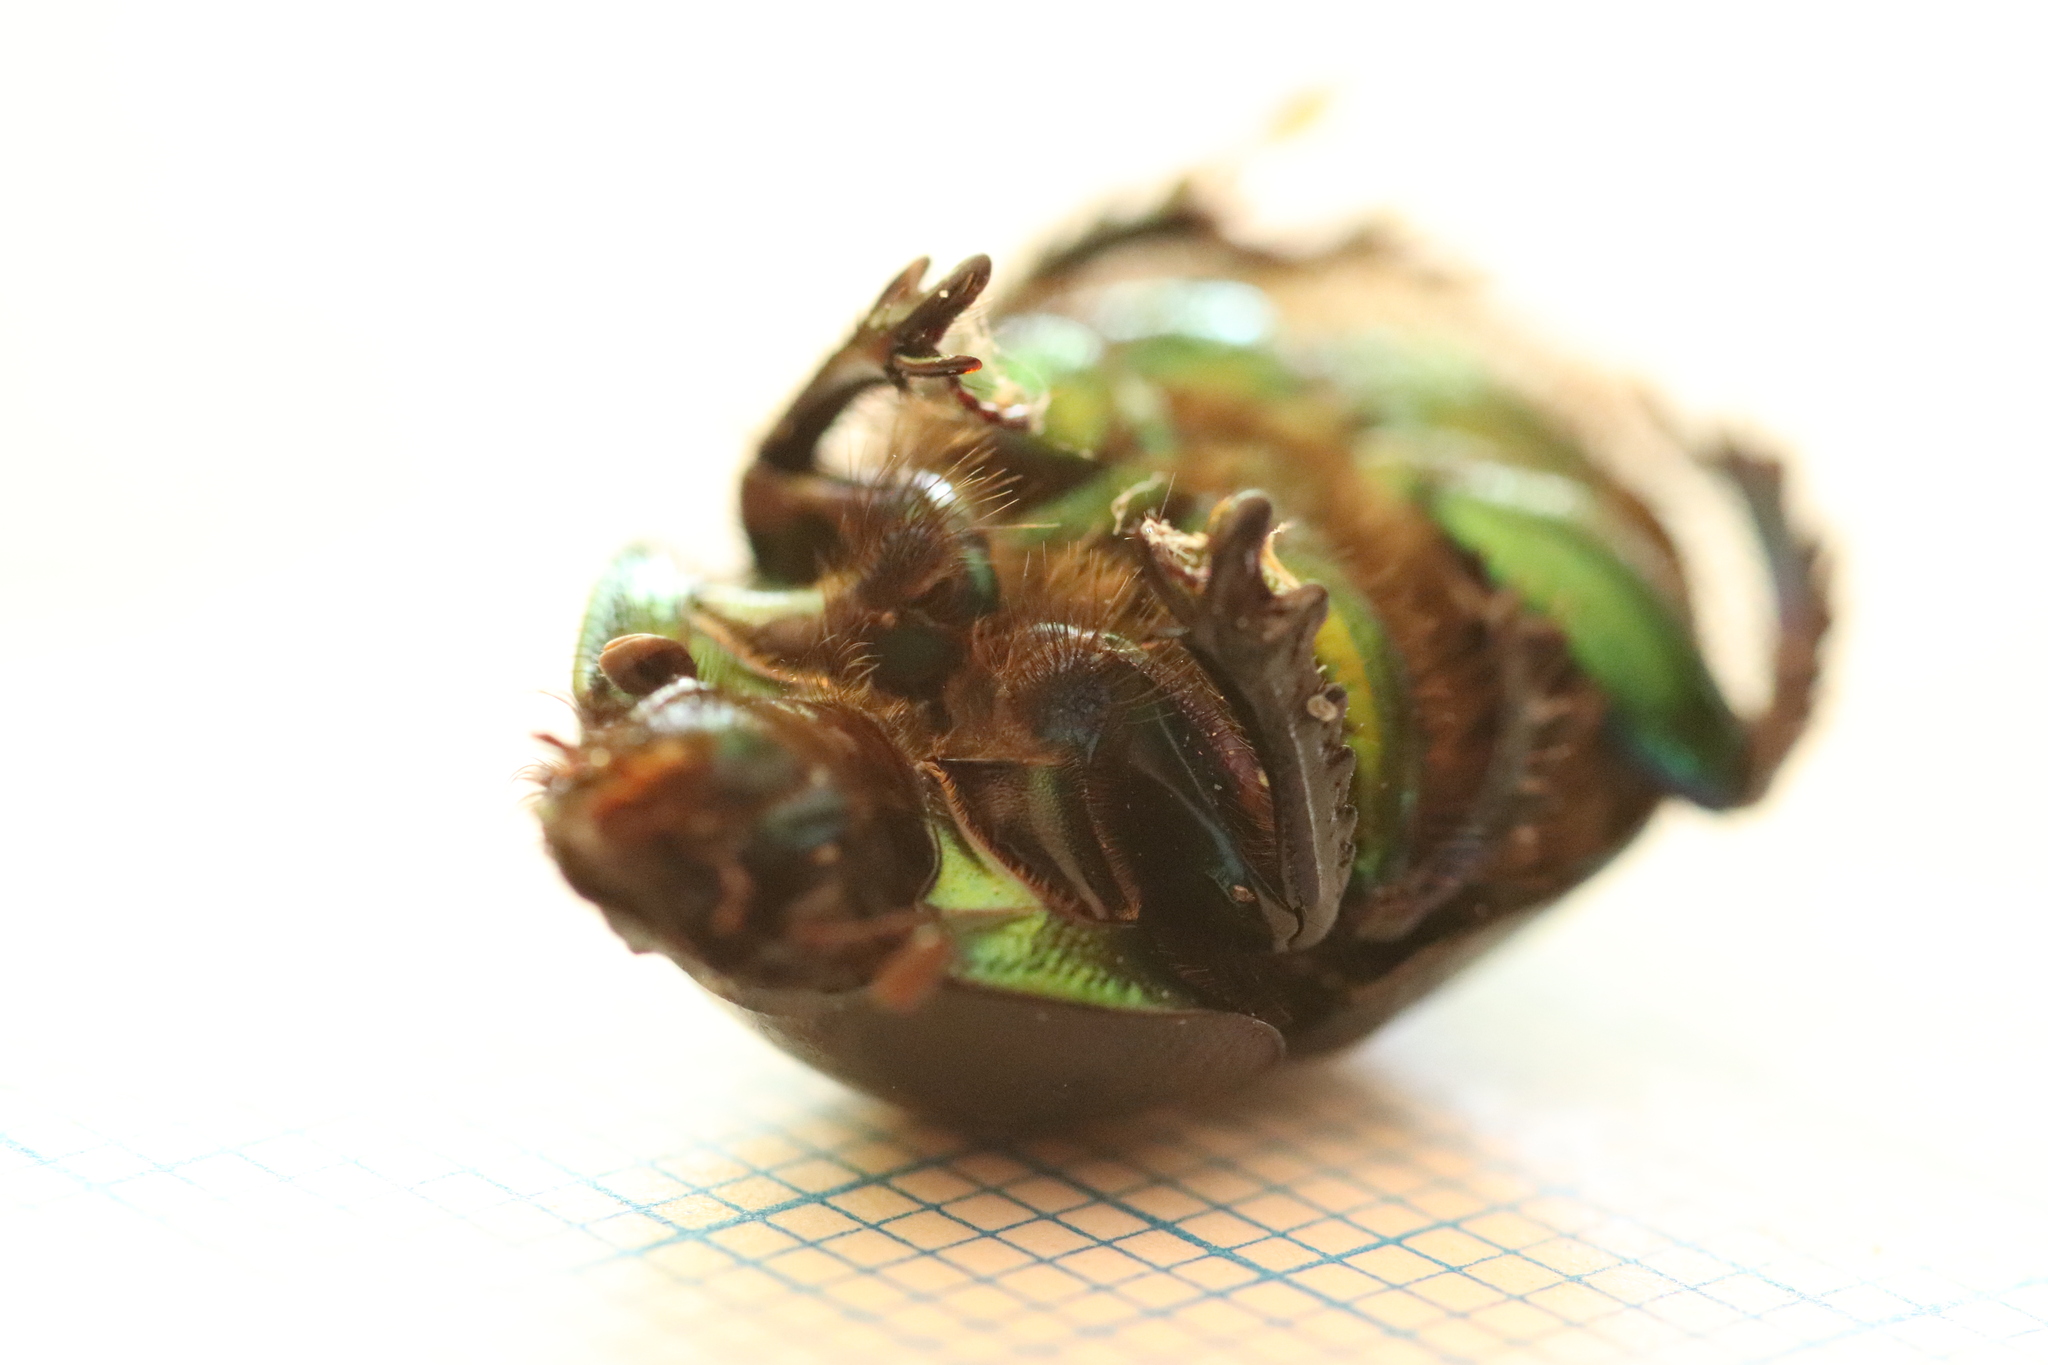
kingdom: Animalia
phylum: Arthropoda
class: Insecta
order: Coleoptera
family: Geotrupidae
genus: Sericotrupes
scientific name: Sericotrupes niger
